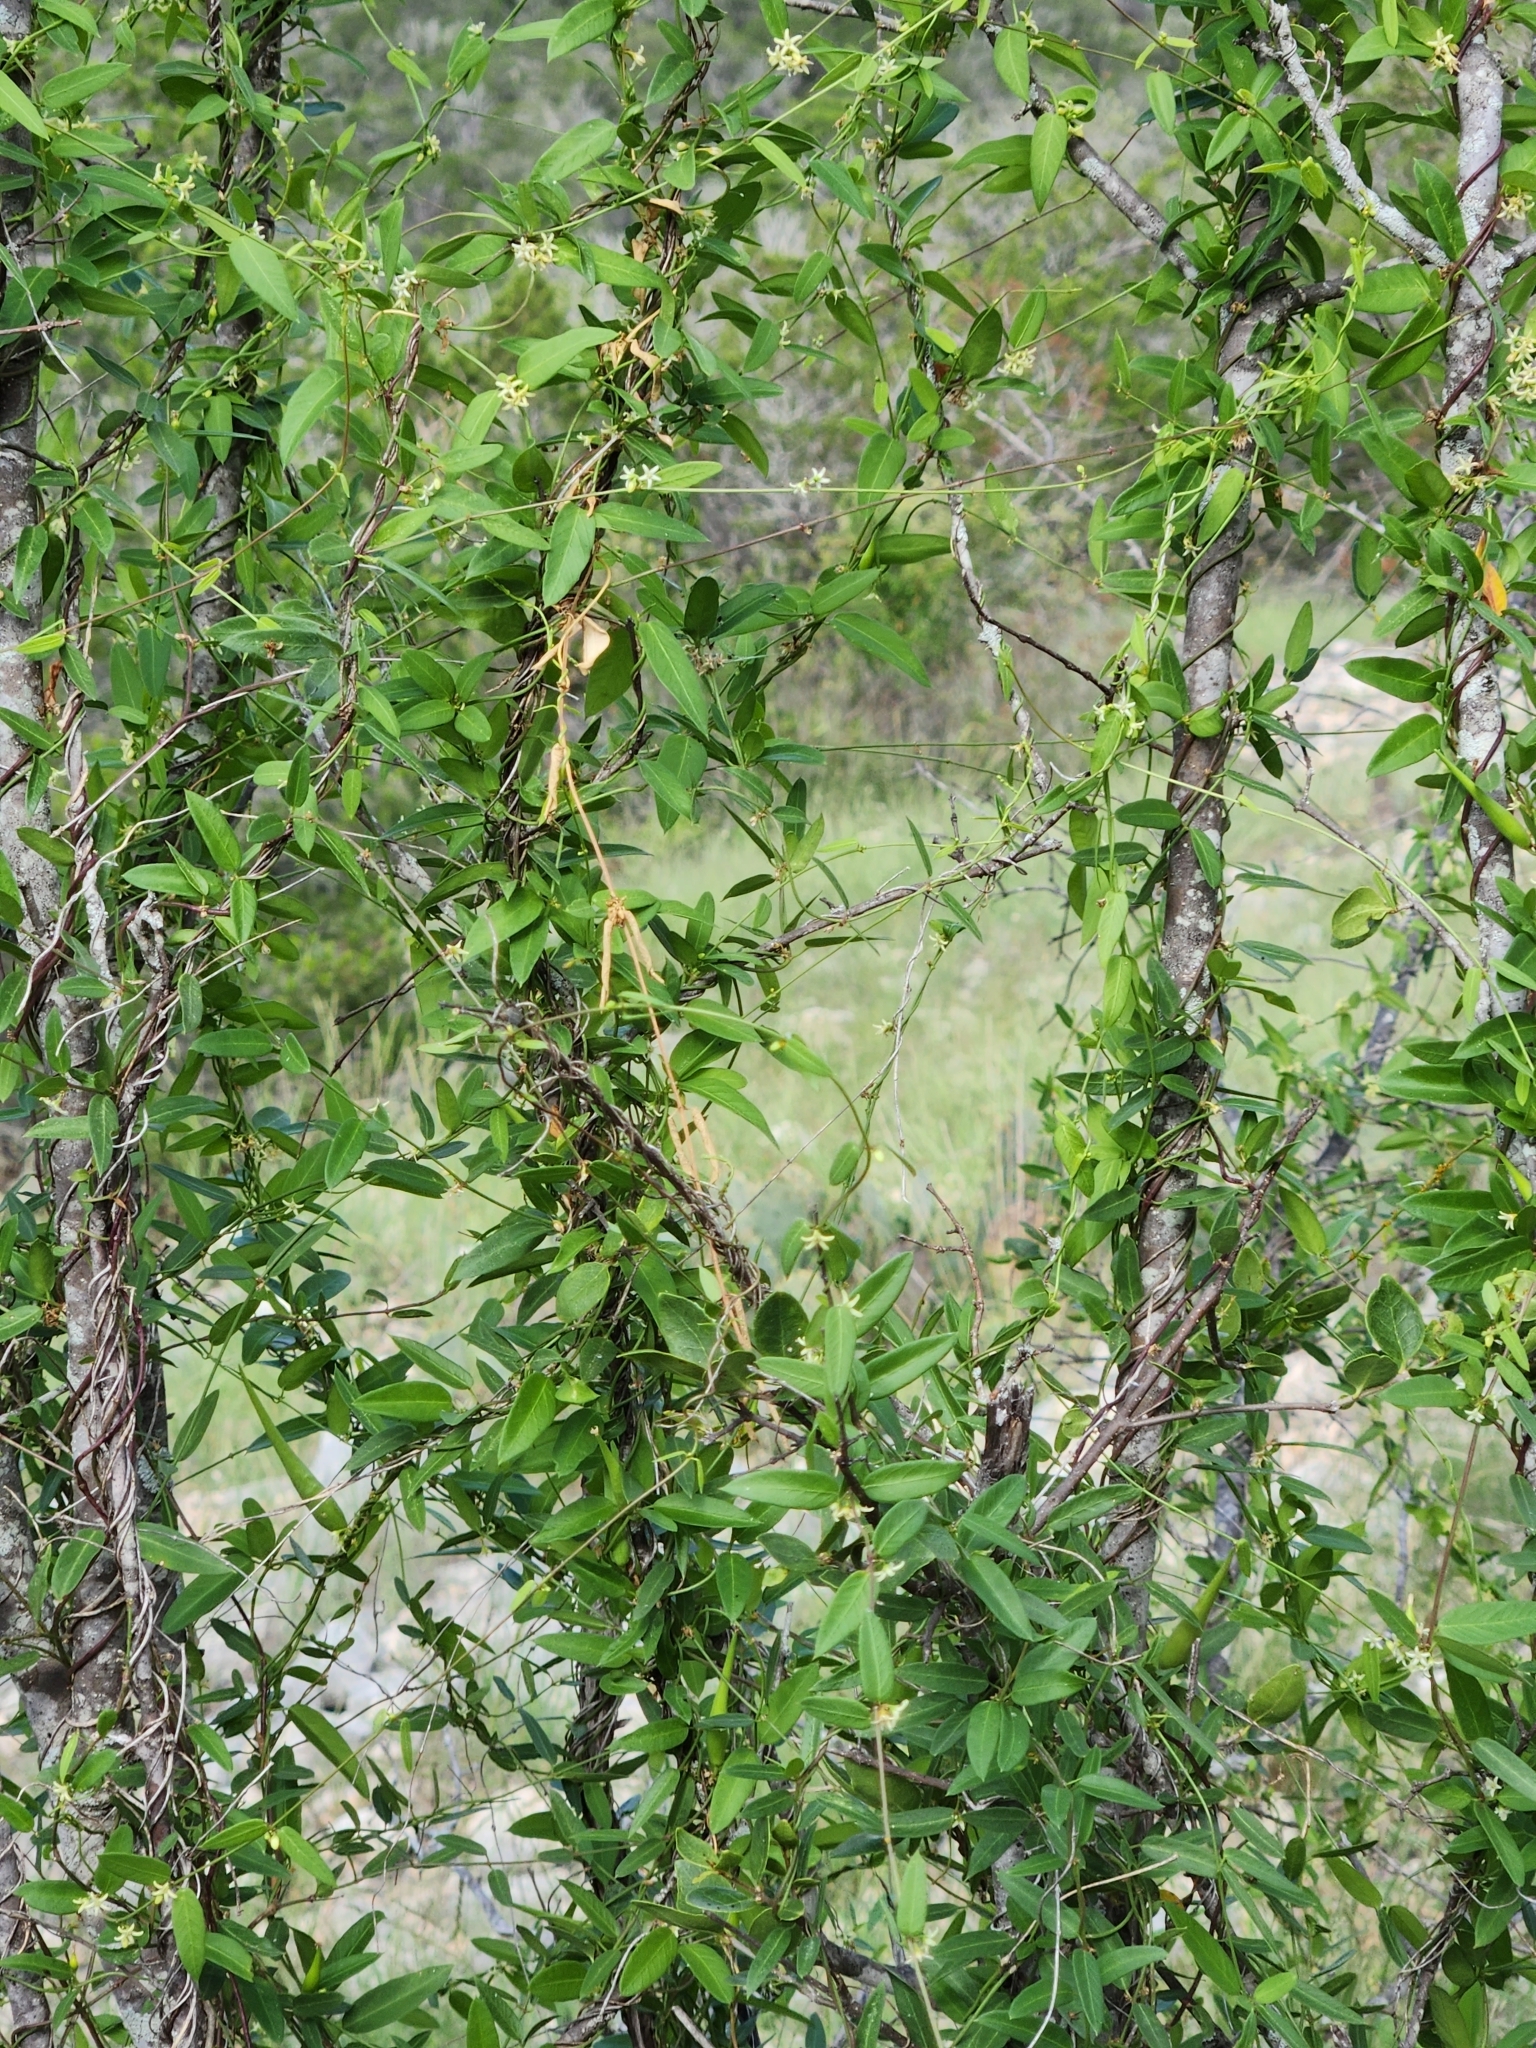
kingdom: Plantae
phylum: Tracheophyta
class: Magnoliopsida
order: Gentianales
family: Apocynaceae
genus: Metastelma
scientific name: Metastelma palmeri
